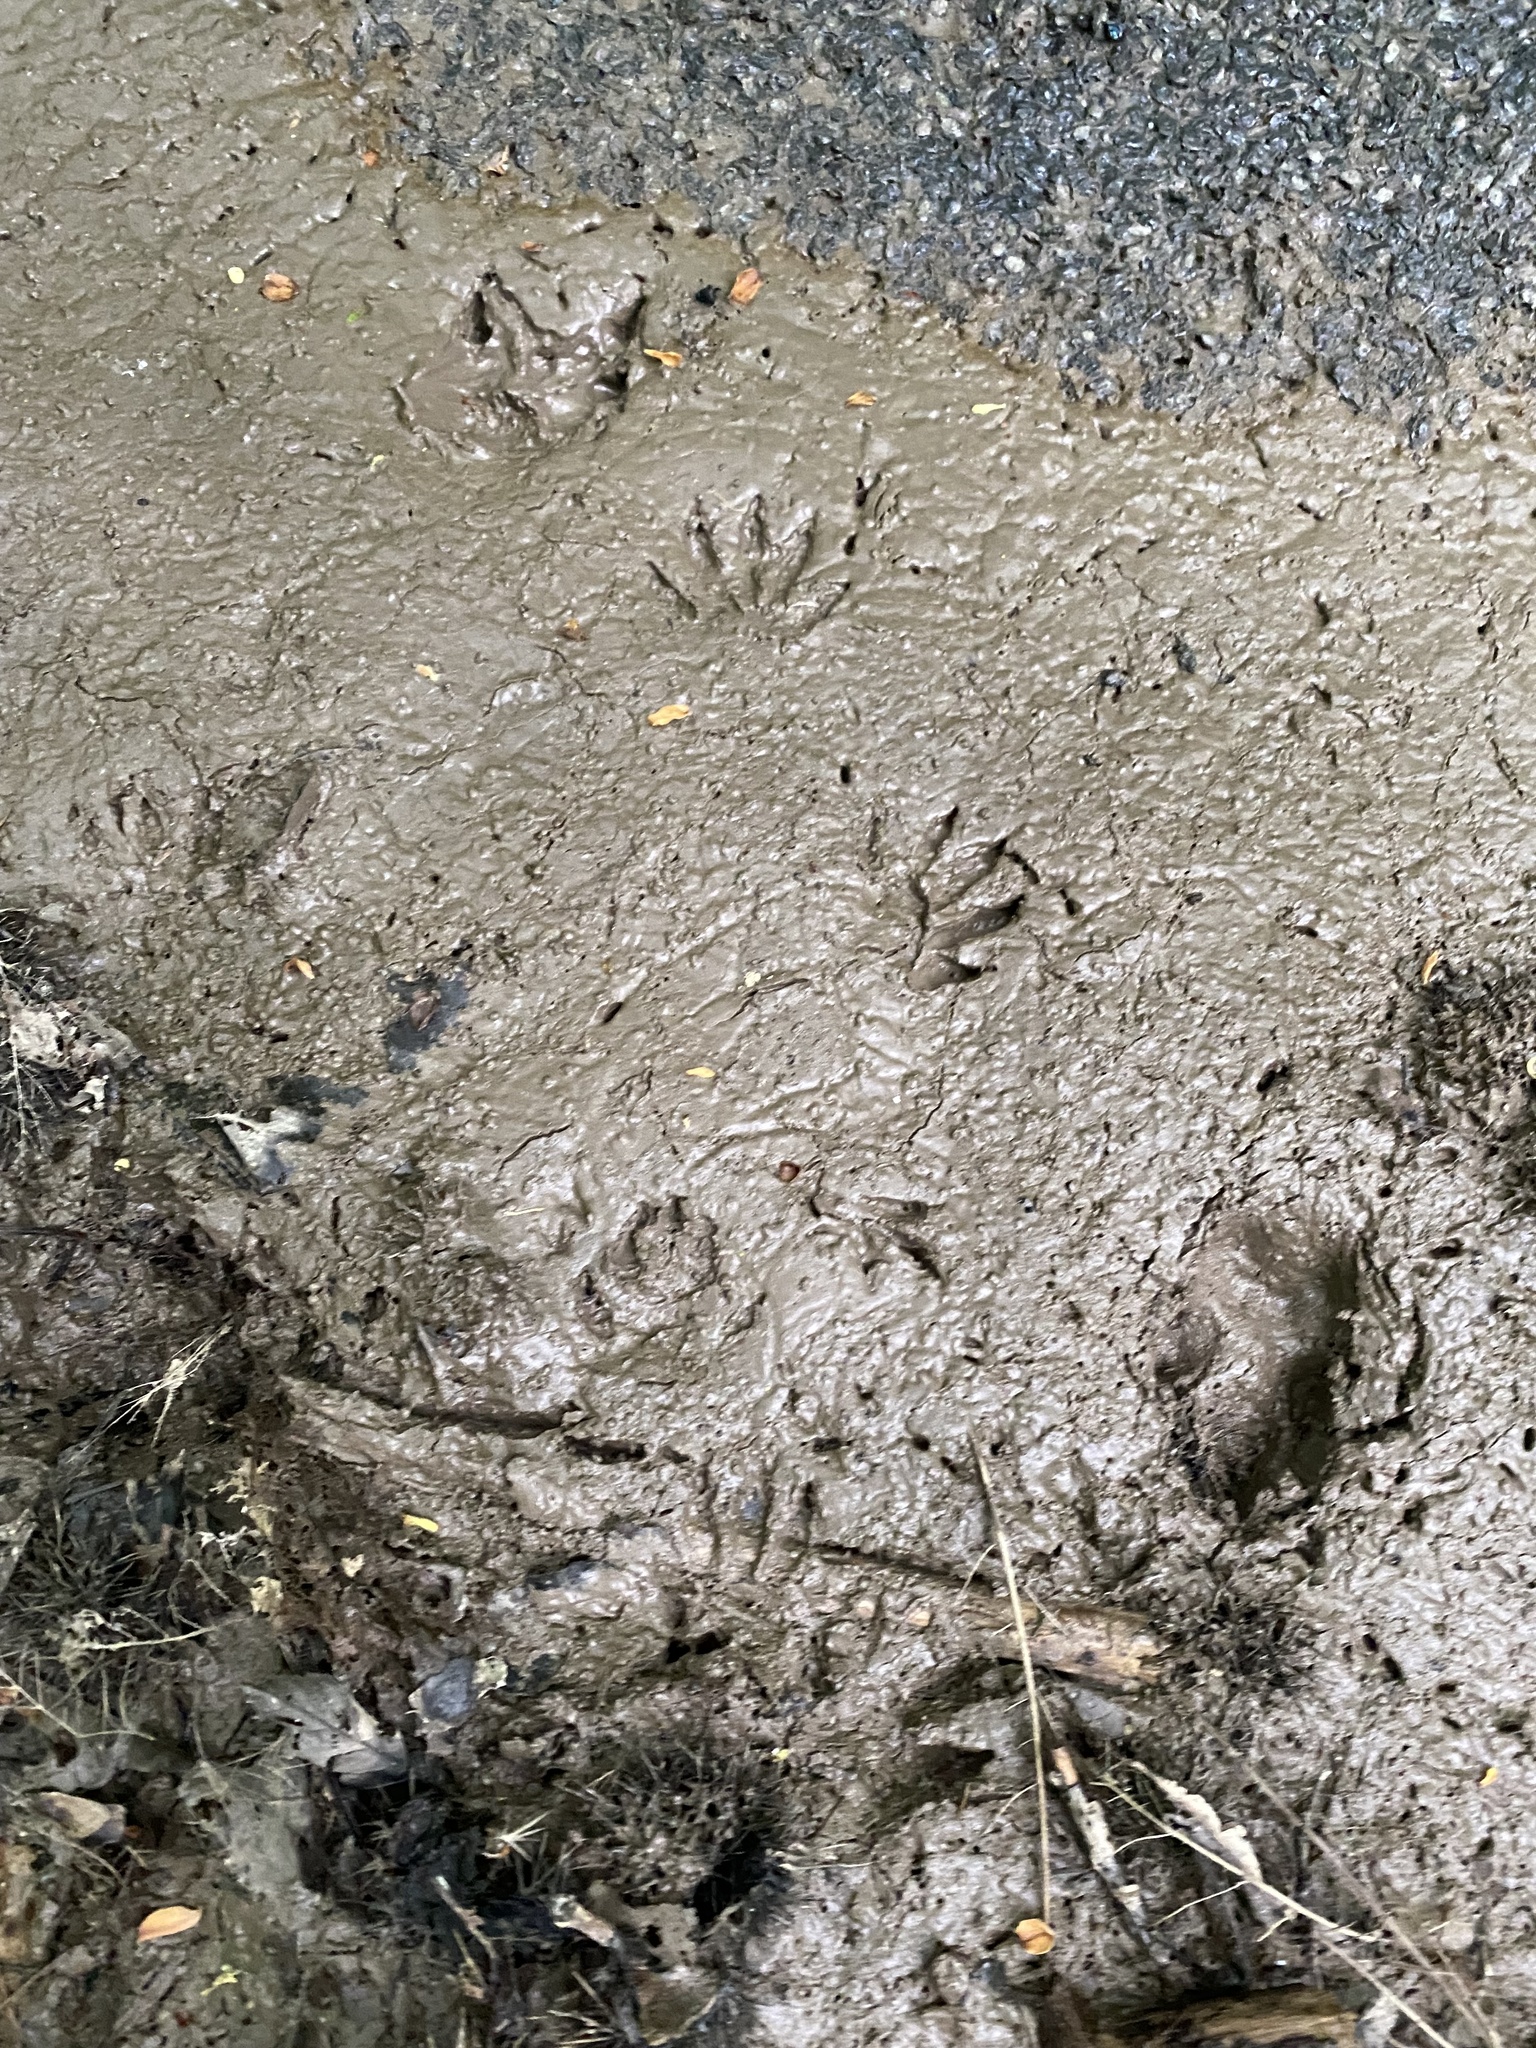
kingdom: Animalia
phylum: Chordata
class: Mammalia
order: Carnivora
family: Procyonidae
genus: Procyon
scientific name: Procyon lotor
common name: Raccoon
